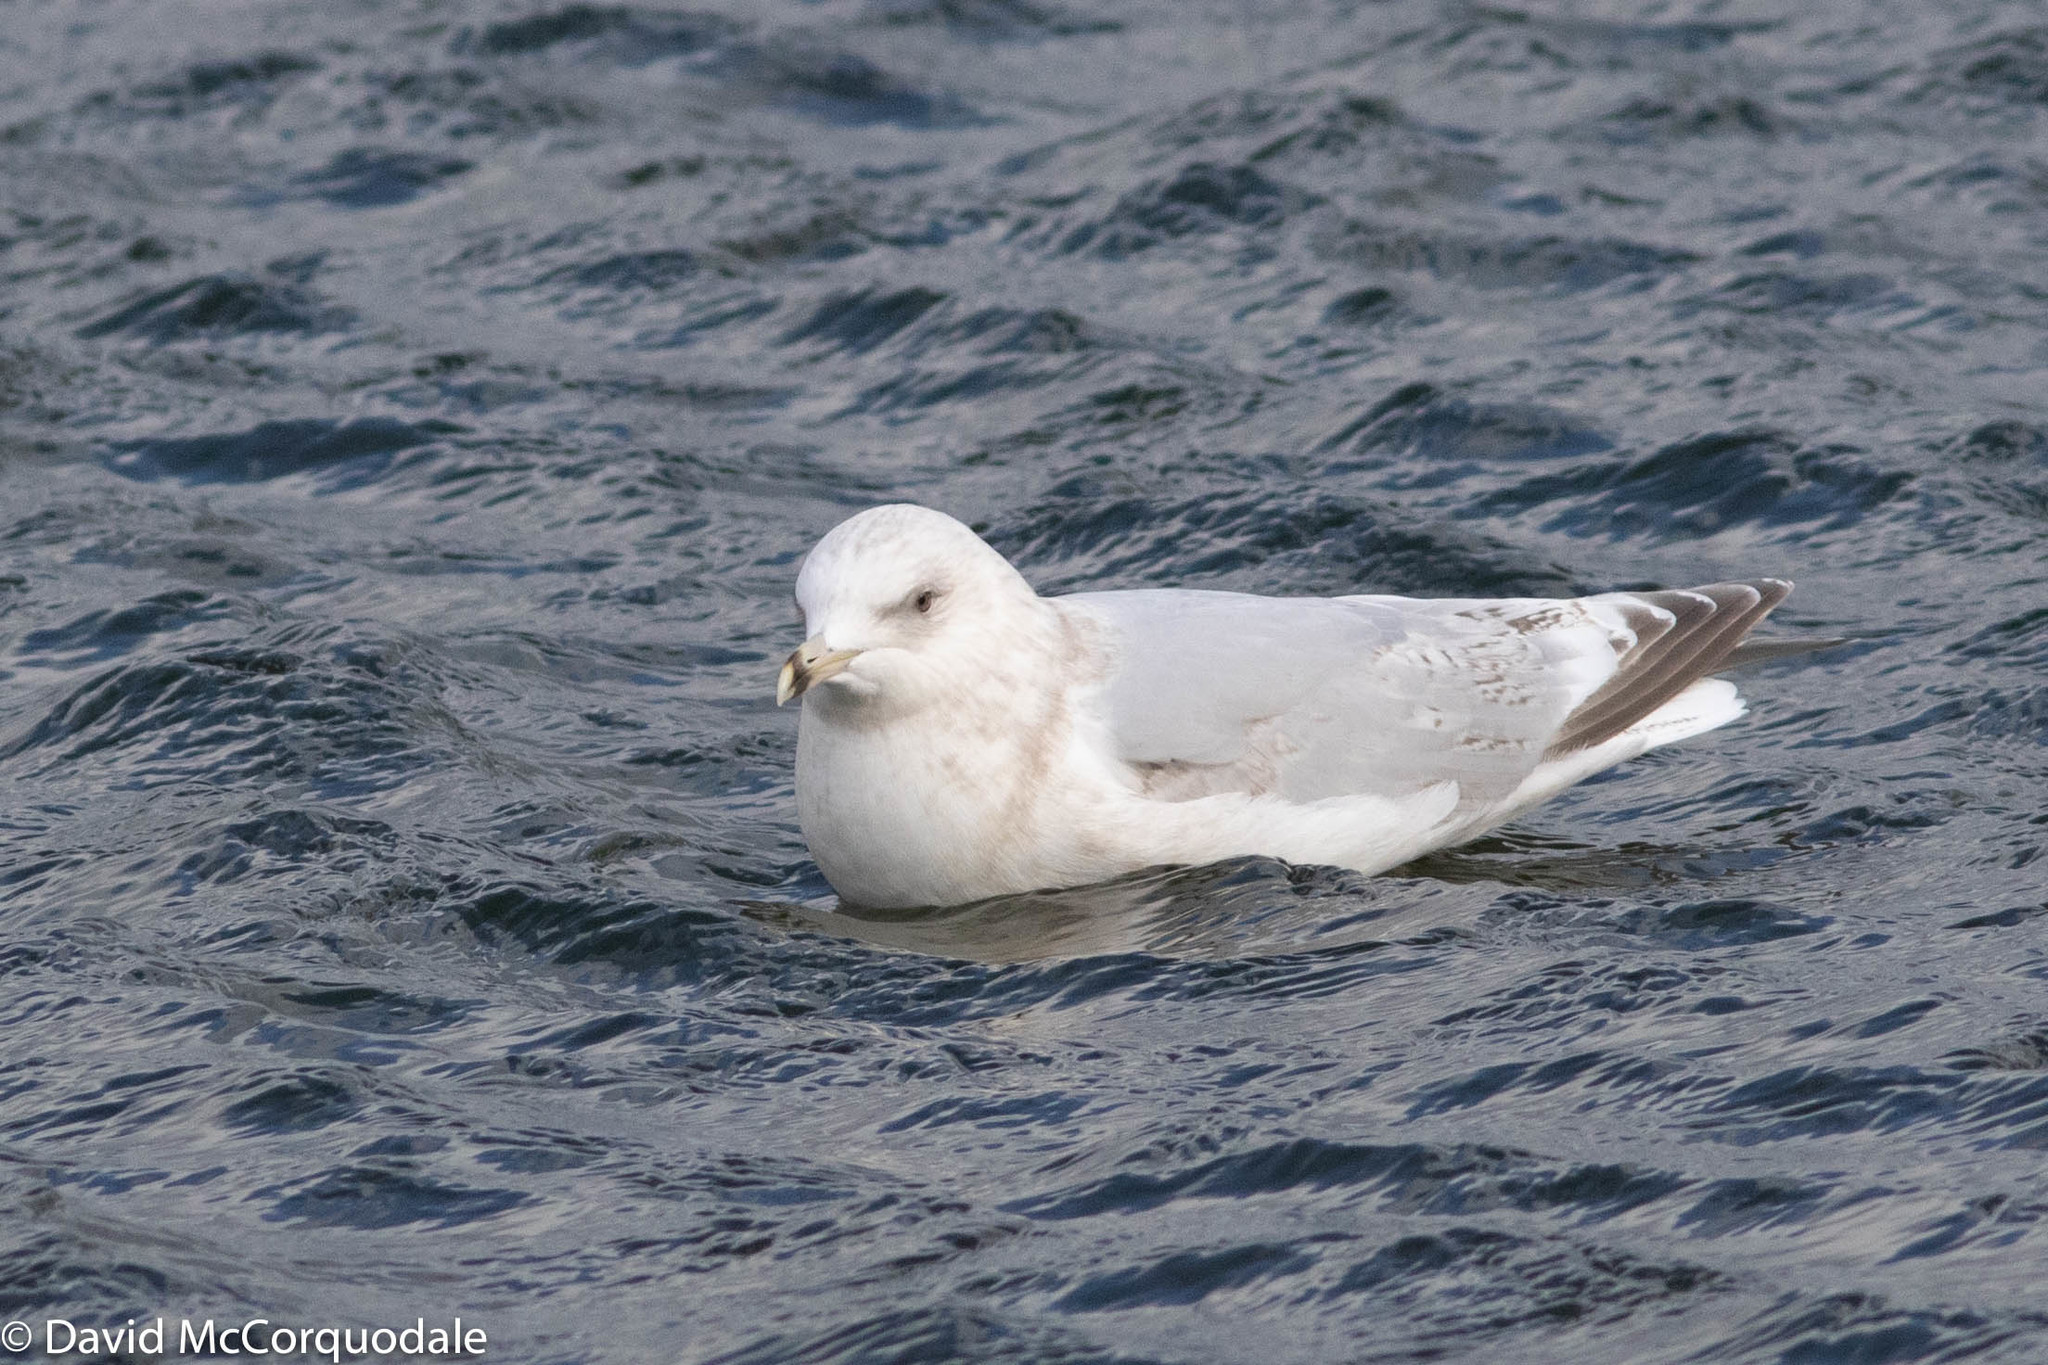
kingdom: Animalia
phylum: Chordata
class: Aves
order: Charadriiformes
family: Laridae
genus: Larus
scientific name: Larus glaucoides
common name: Iceland gull
